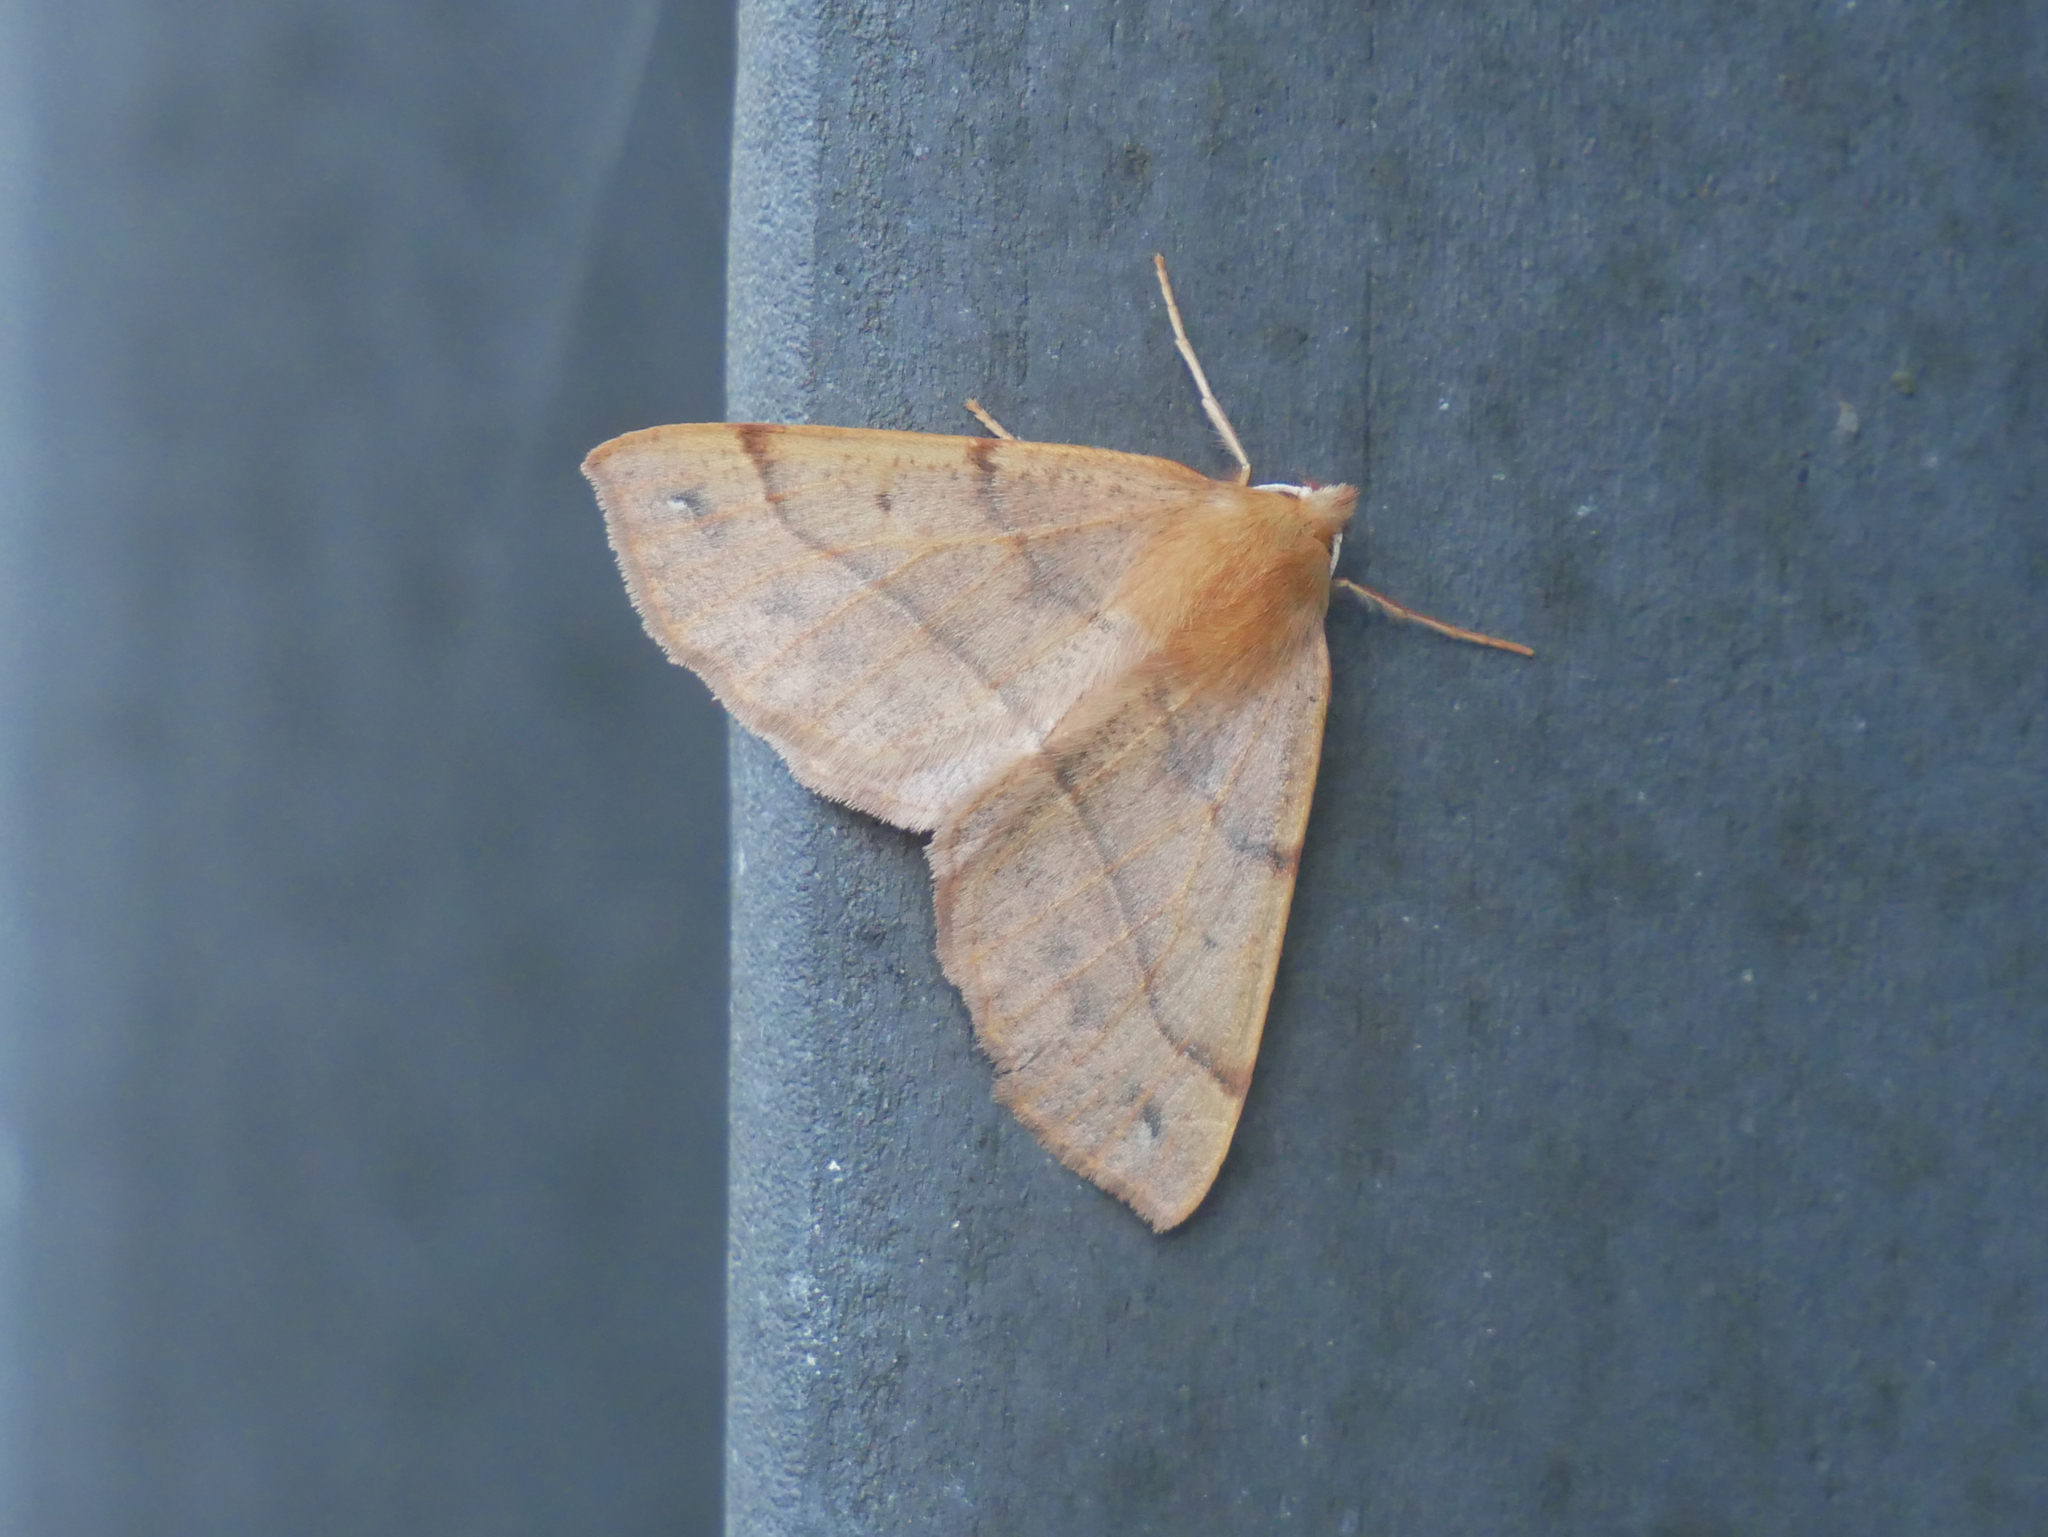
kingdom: Animalia
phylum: Arthropoda
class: Insecta
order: Lepidoptera
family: Geometridae
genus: Colotois
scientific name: Colotois pennaria
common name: Feathered thorn
